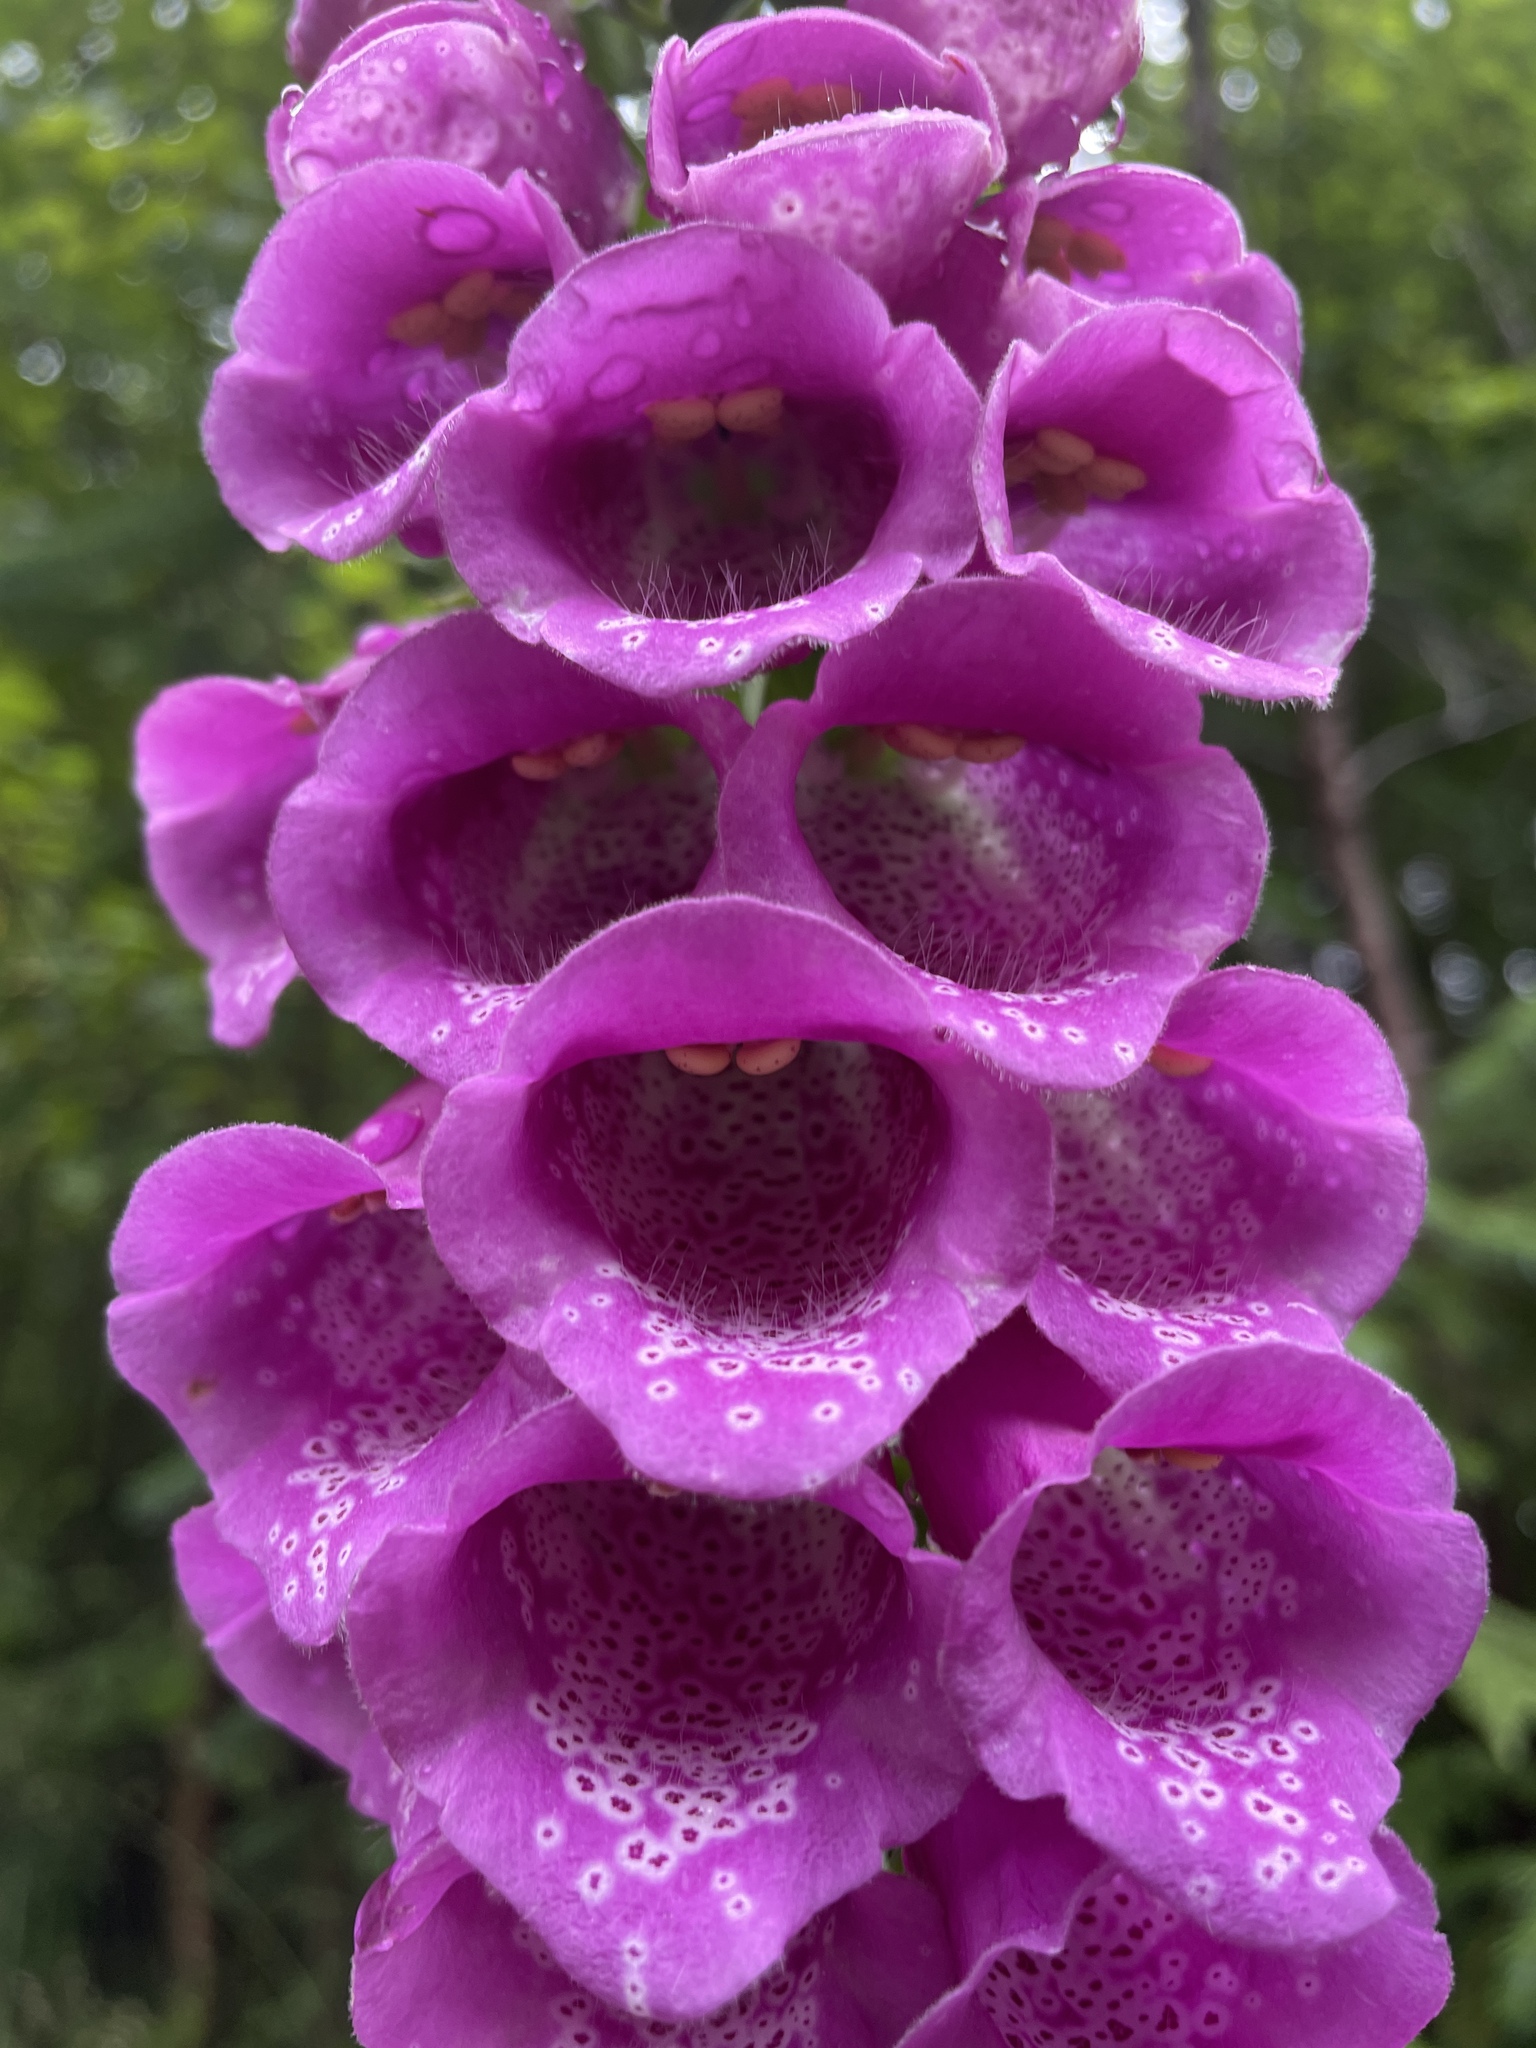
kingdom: Plantae
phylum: Tracheophyta
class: Magnoliopsida
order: Lamiales
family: Plantaginaceae
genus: Digitalis
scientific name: Digitalis purpurea
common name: Foxglove
